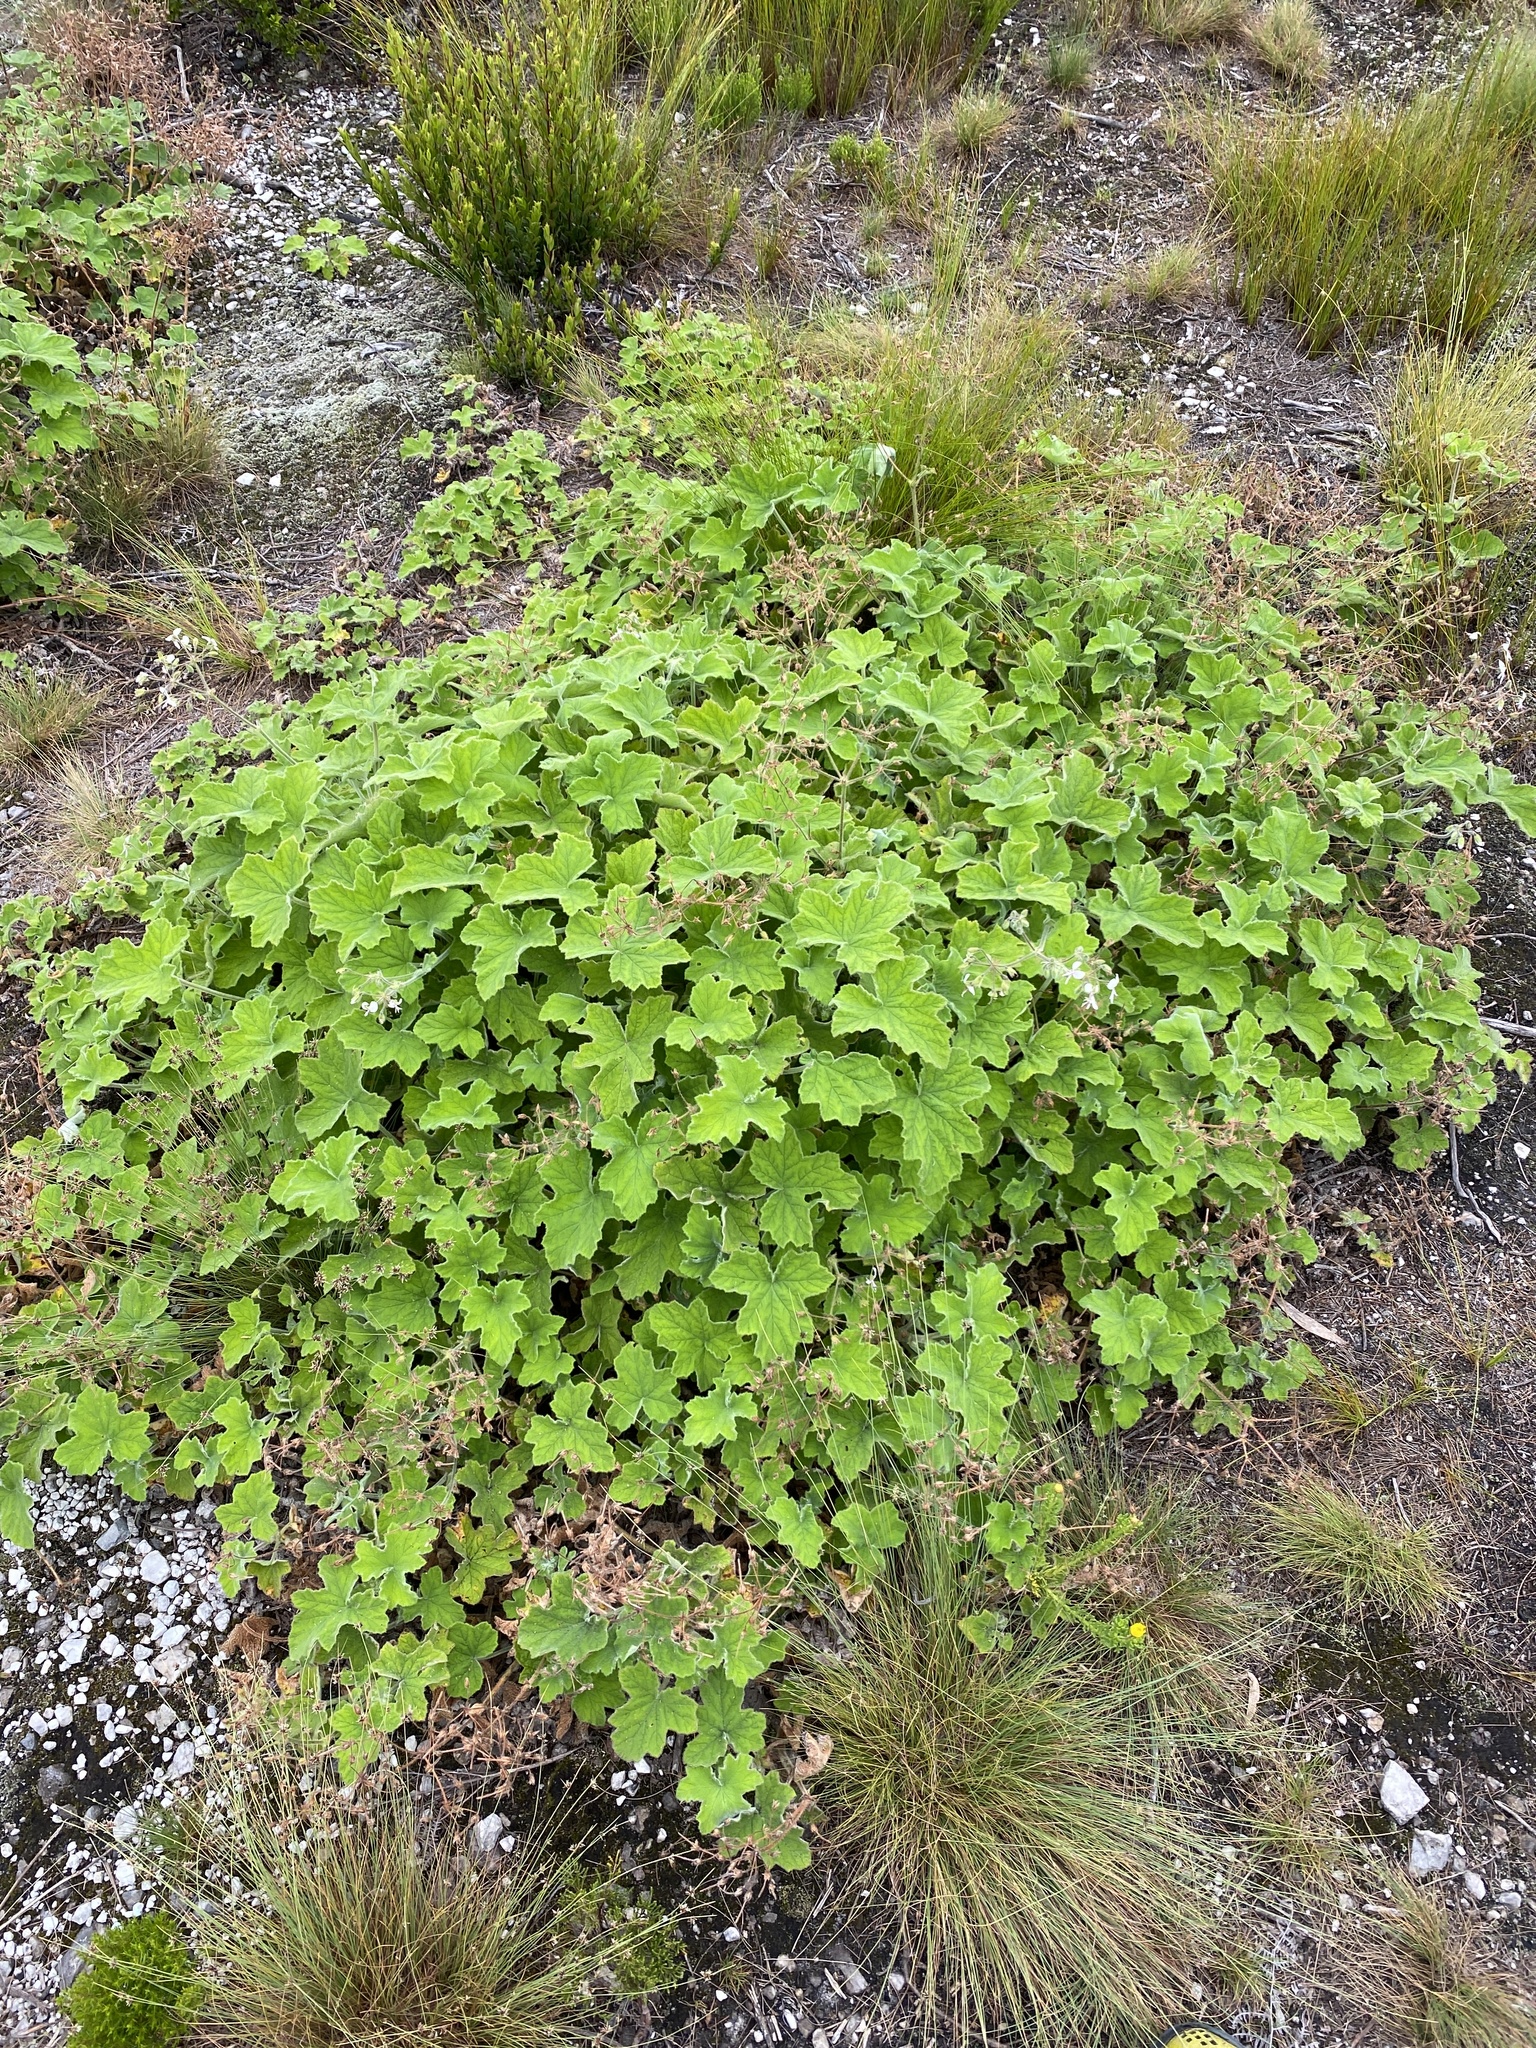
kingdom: Plantae
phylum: Tracheophyta
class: Magnoliopsida
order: Geraniales
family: Geraniaceae
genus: Pelargonium
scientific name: Pelargonium tomentosum
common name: Peppermint-scented geranium
